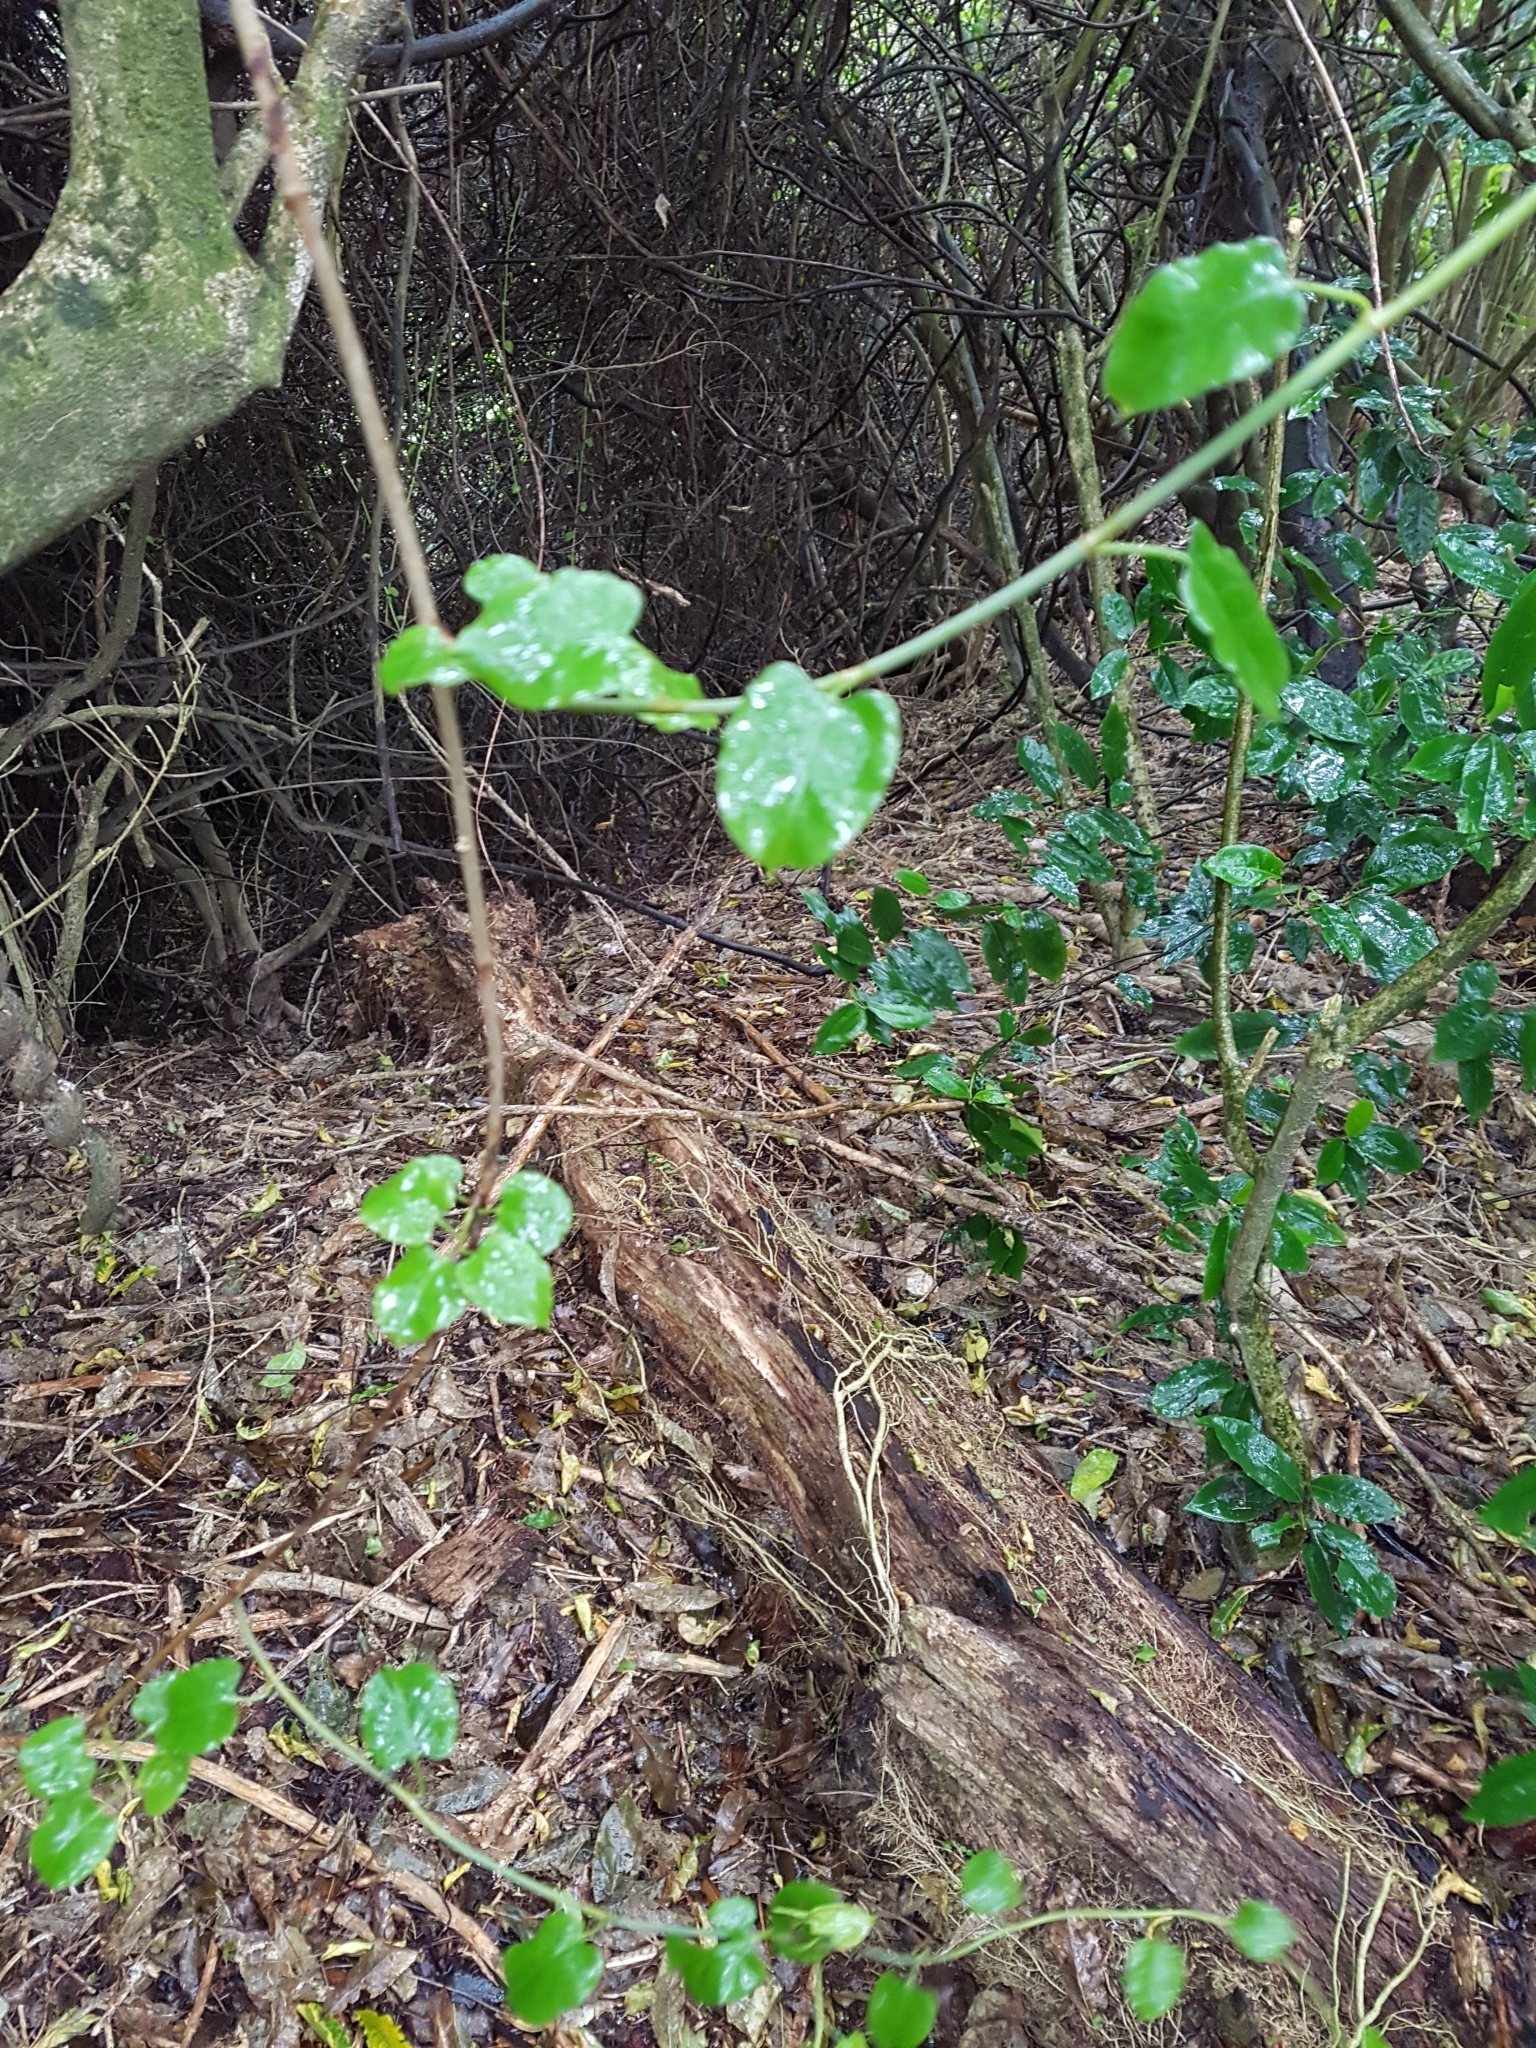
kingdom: Plantae
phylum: Tracheophyta
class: Magnoliopsida
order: Caryophyllales
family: Polygonaceae
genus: Muehlenbeckia
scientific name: Muehlenbeckia australis
